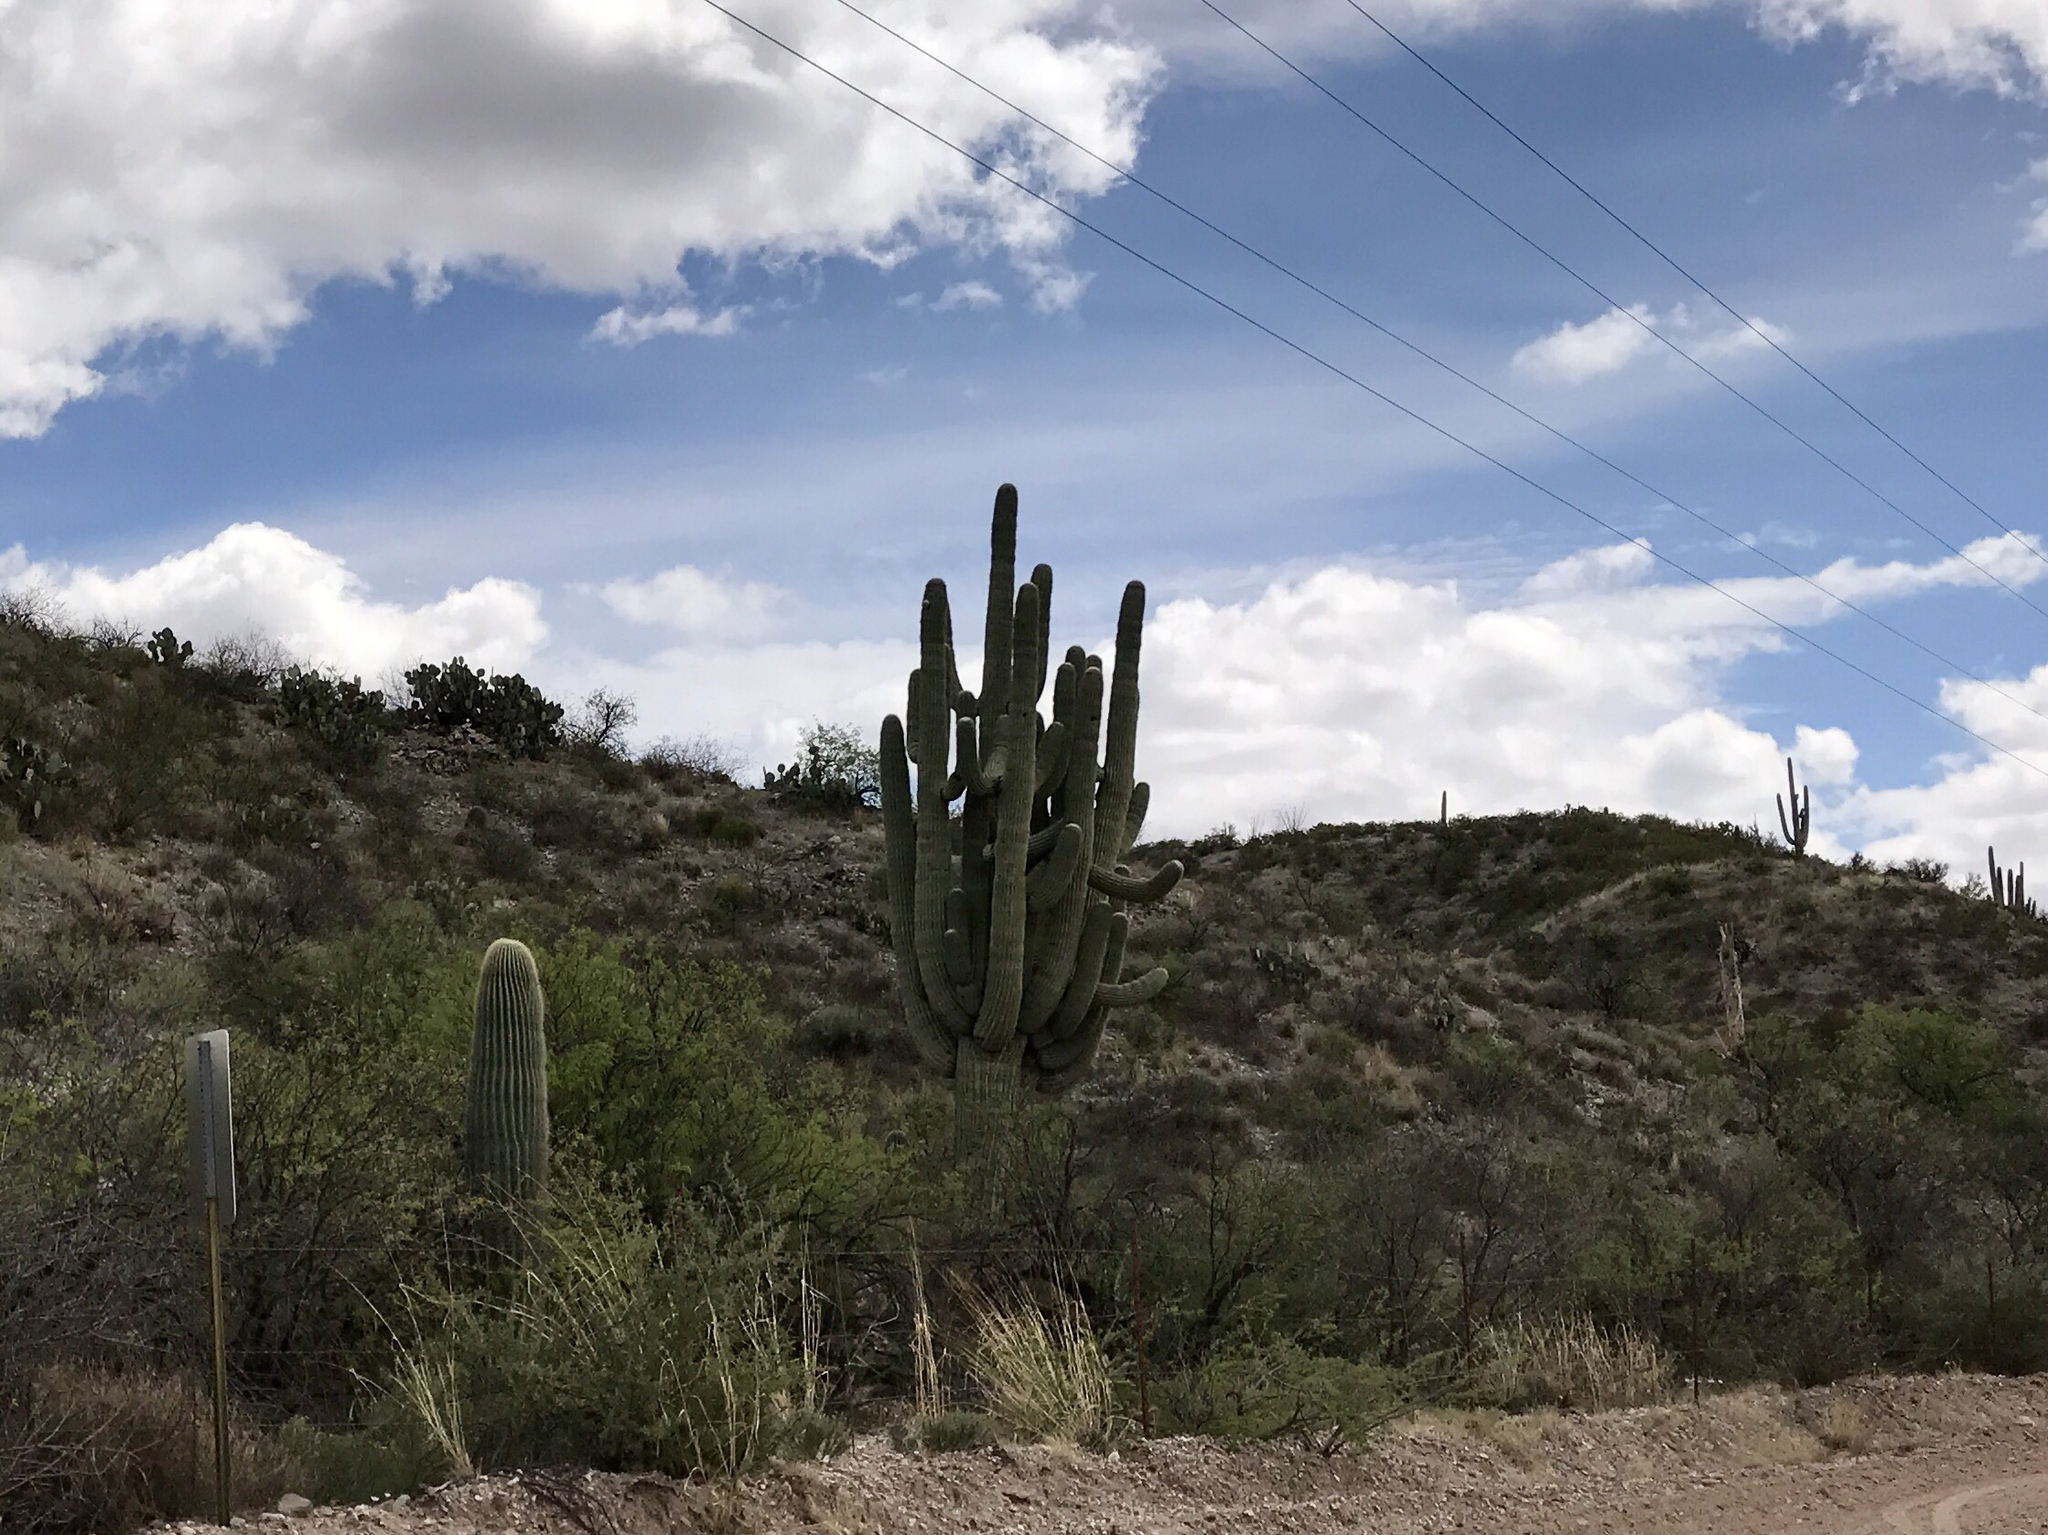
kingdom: Plantae
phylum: Tracheophyta
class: Magnoliopsida
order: Caryophyllales
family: Cactaceae
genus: Carnegiea
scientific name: Carnegiea gigantea
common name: Saguaro
